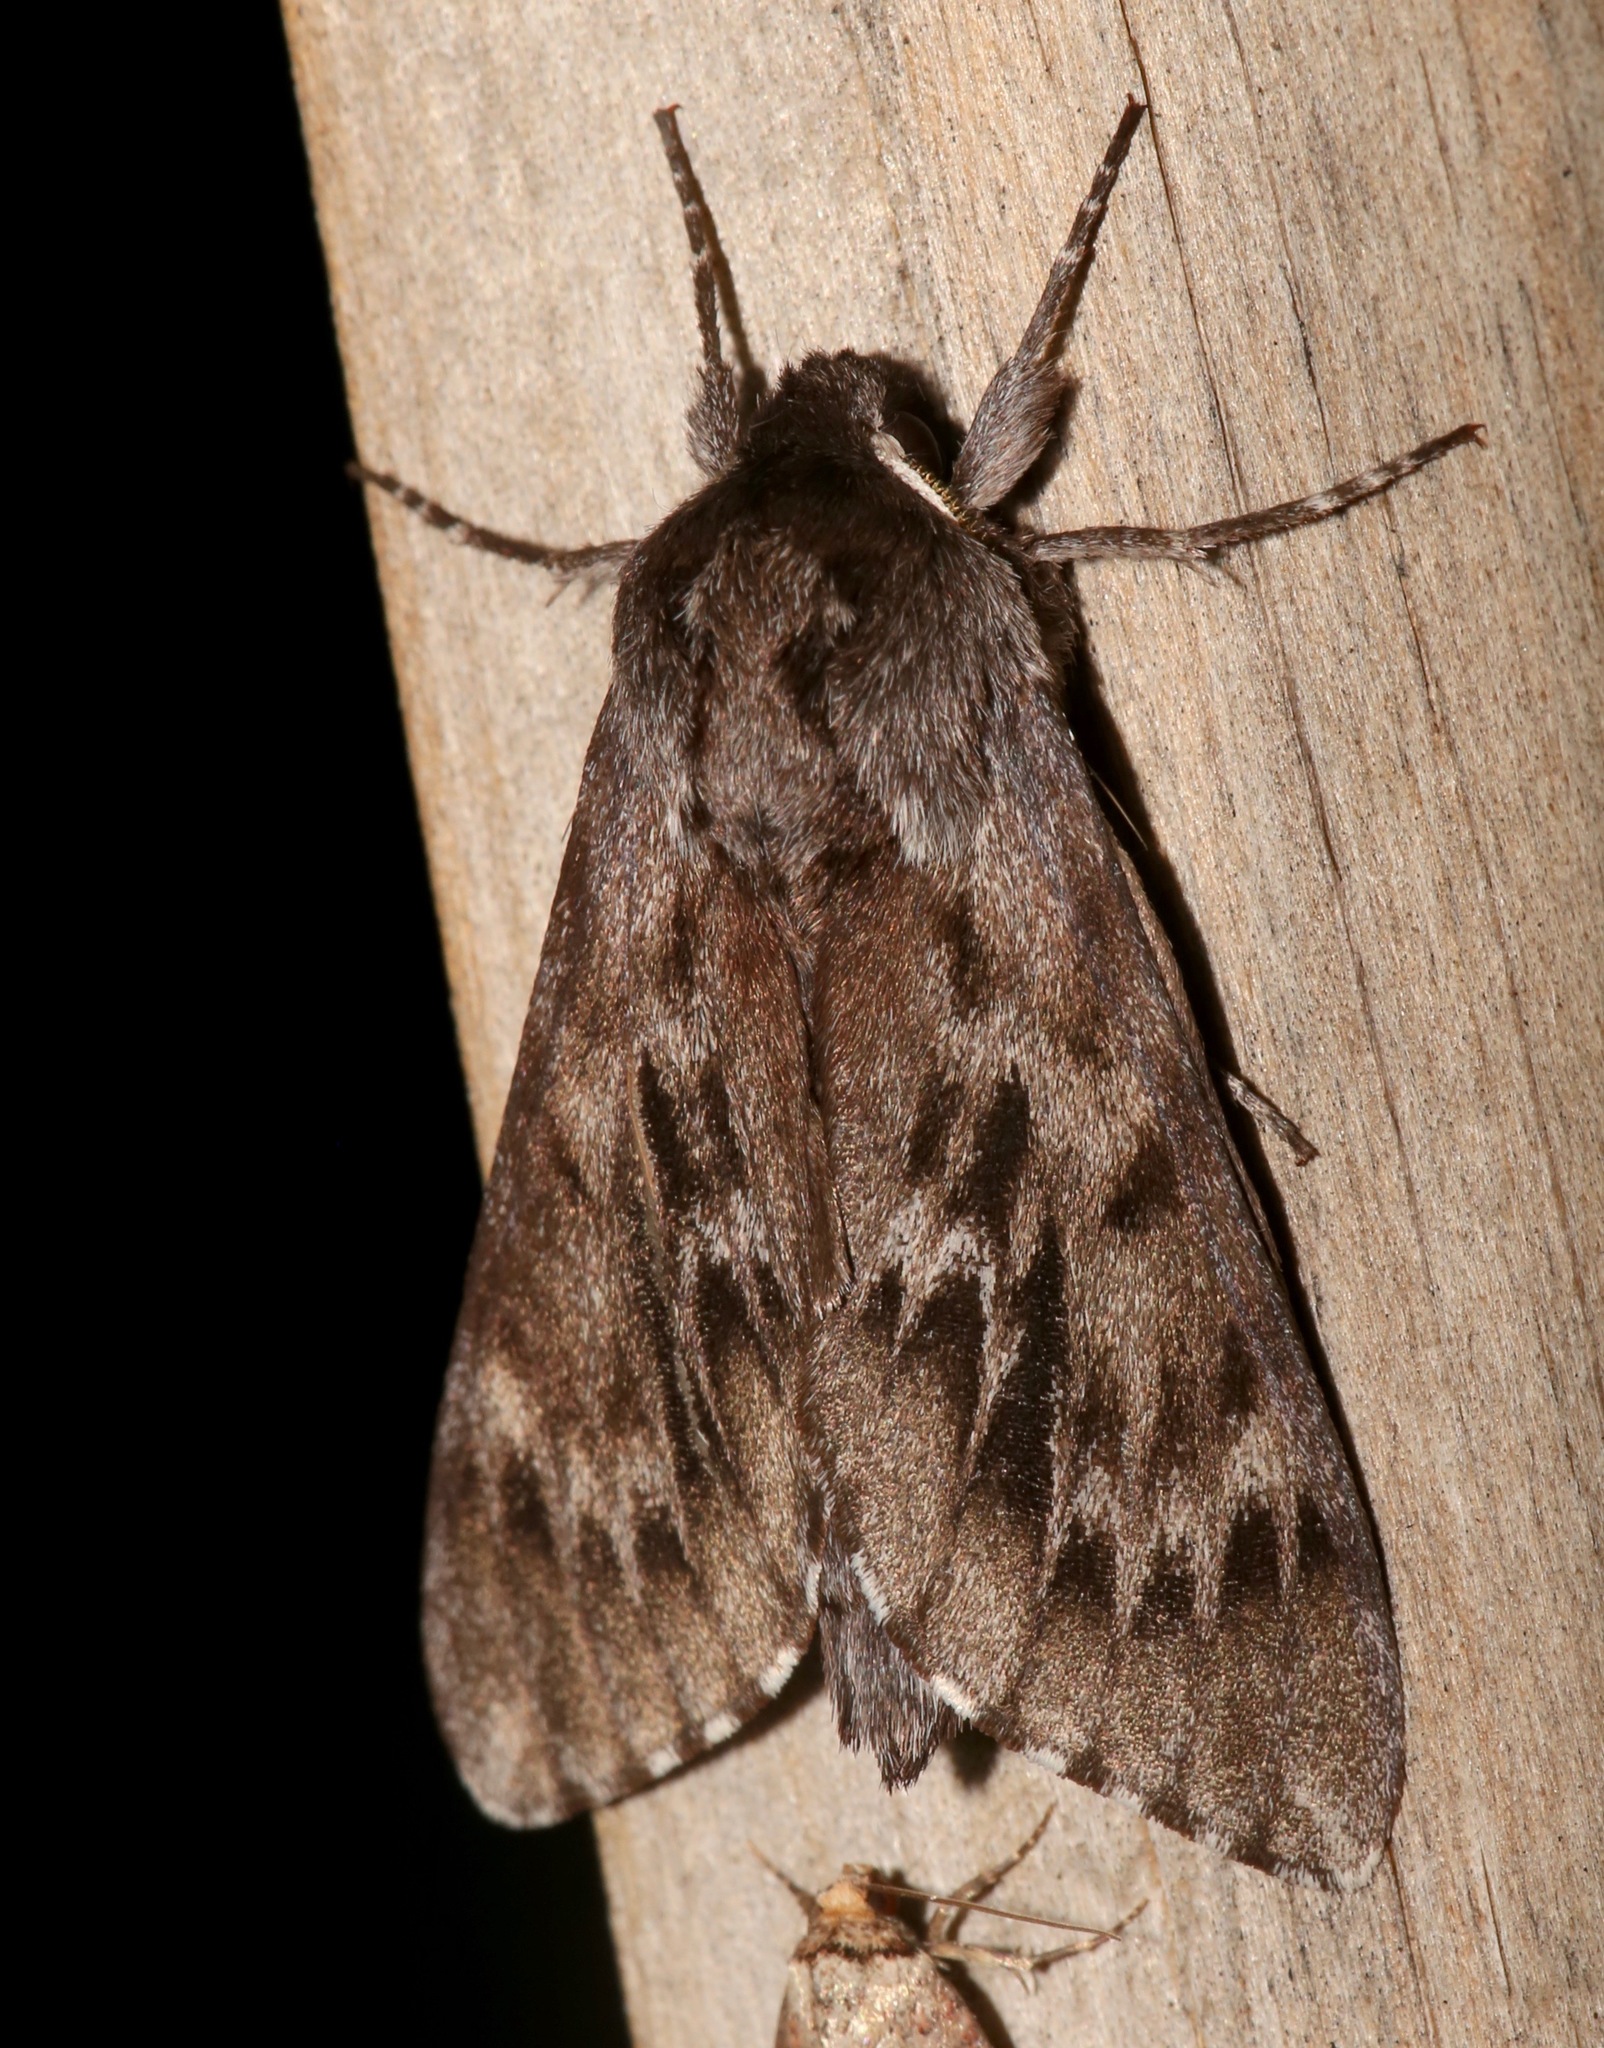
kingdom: Animalia
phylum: Arthropoda
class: Insecta
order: Lepidoptera
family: Sphingidae
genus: Lapara
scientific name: Lapara bombycoides
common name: Northern pine sphinx
